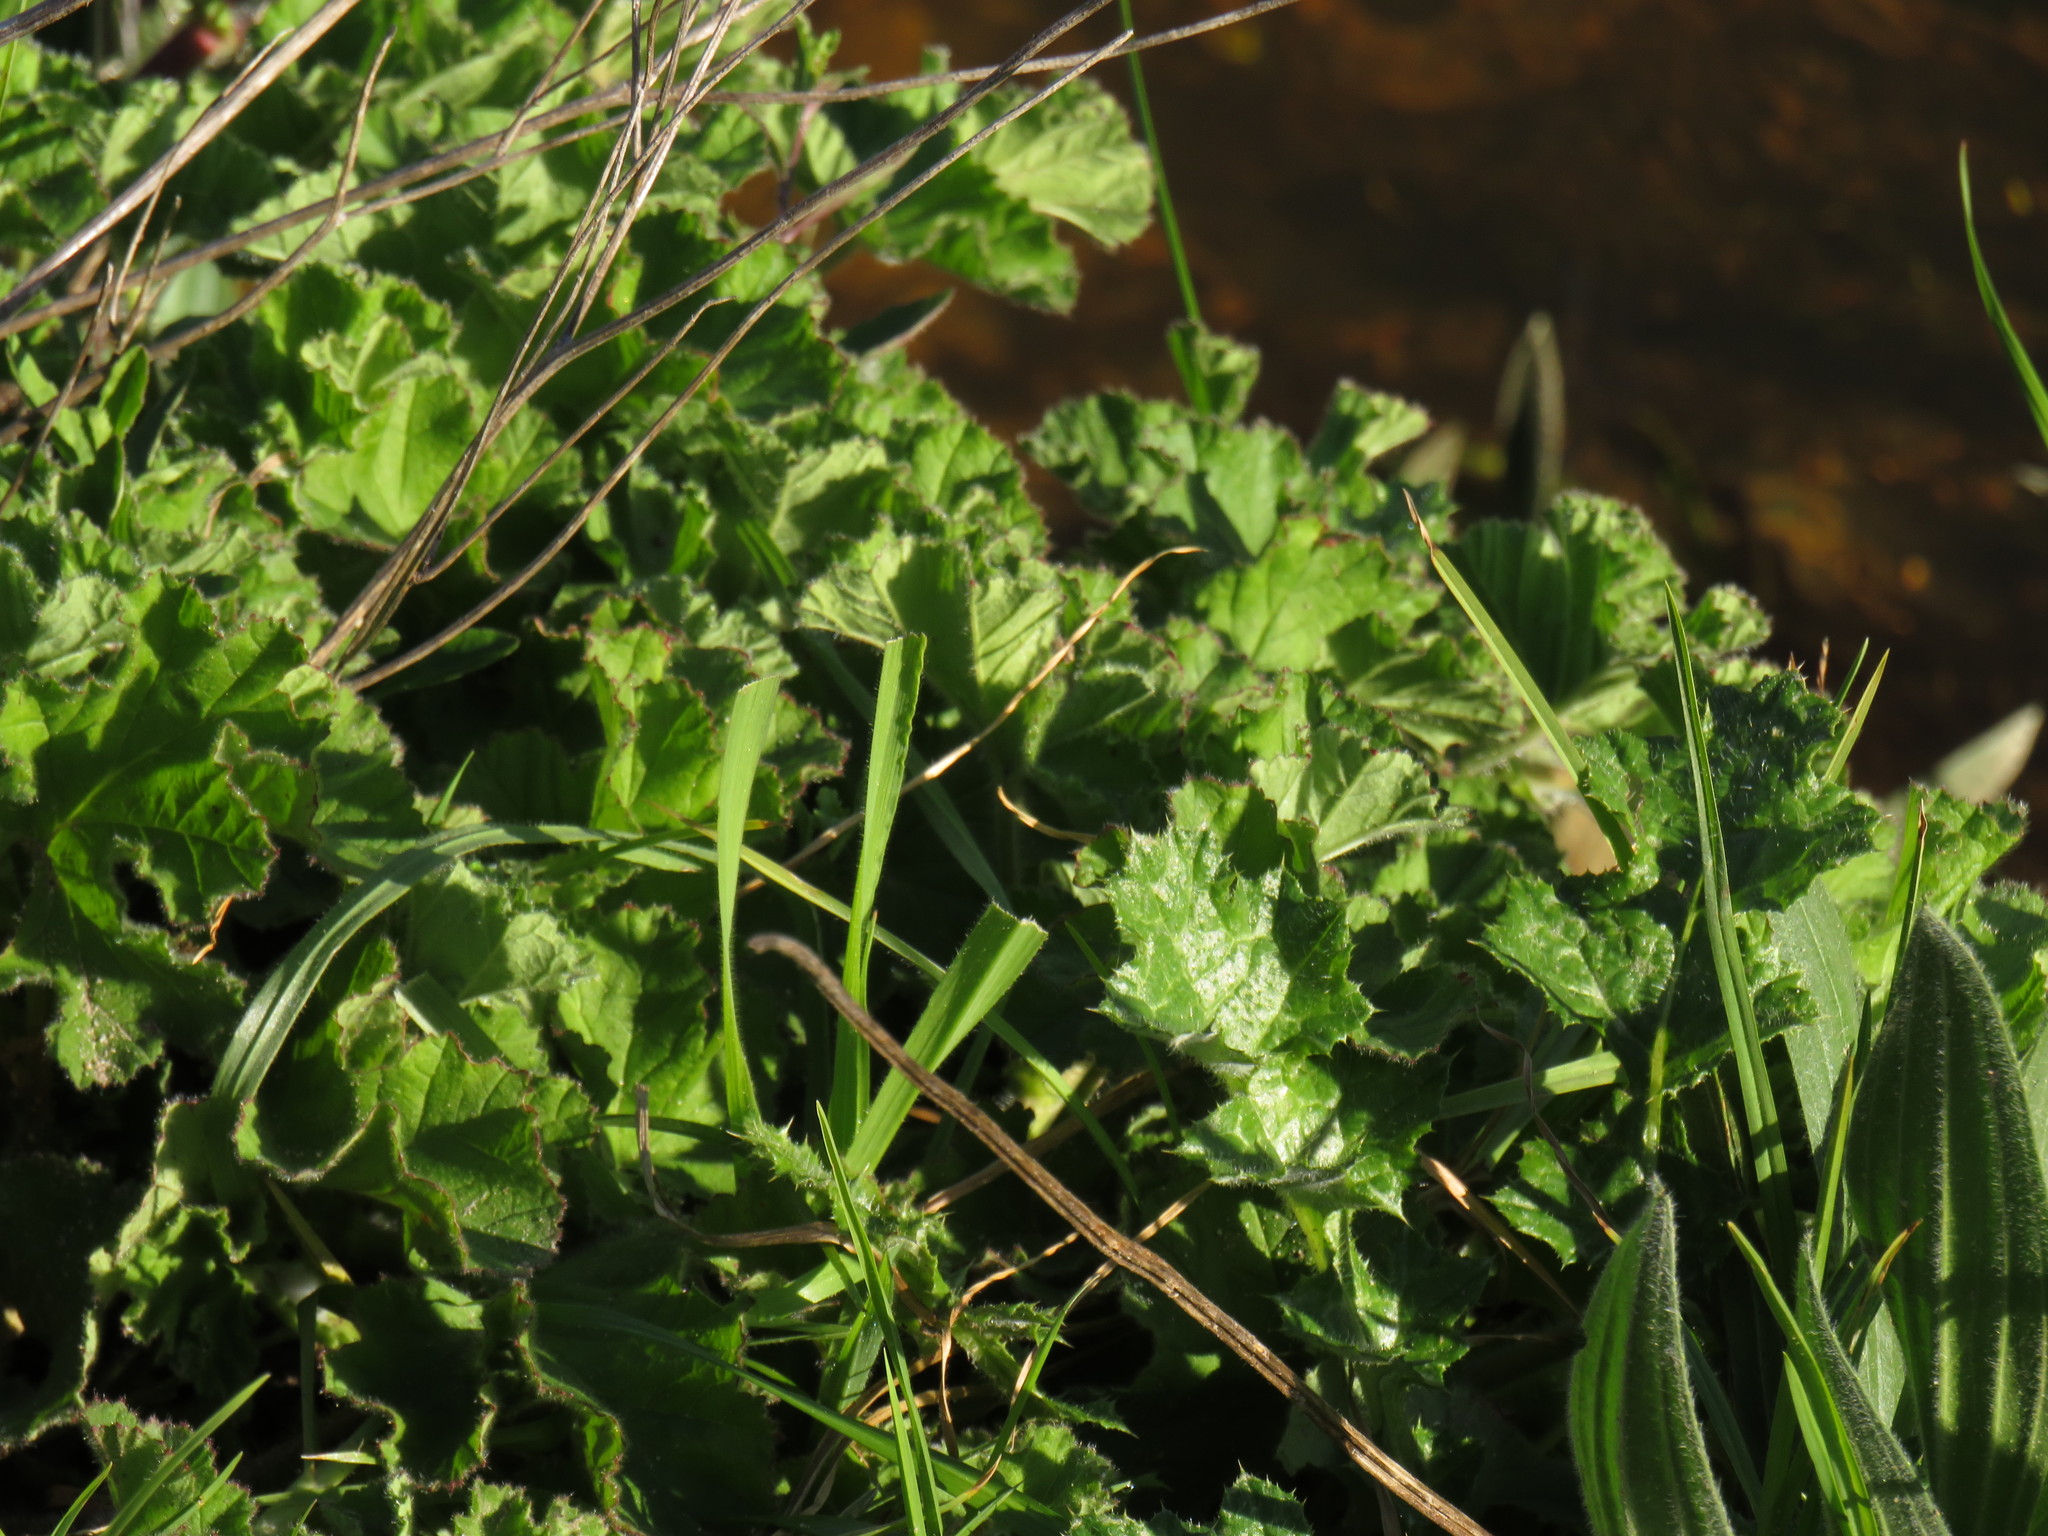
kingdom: Plantae
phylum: Tracheophyta
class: Magnoliopsida
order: Geraniales
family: Geraniaceae
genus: Pelargonium
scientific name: Pelargonium capitatum
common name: Rose scented geranium
